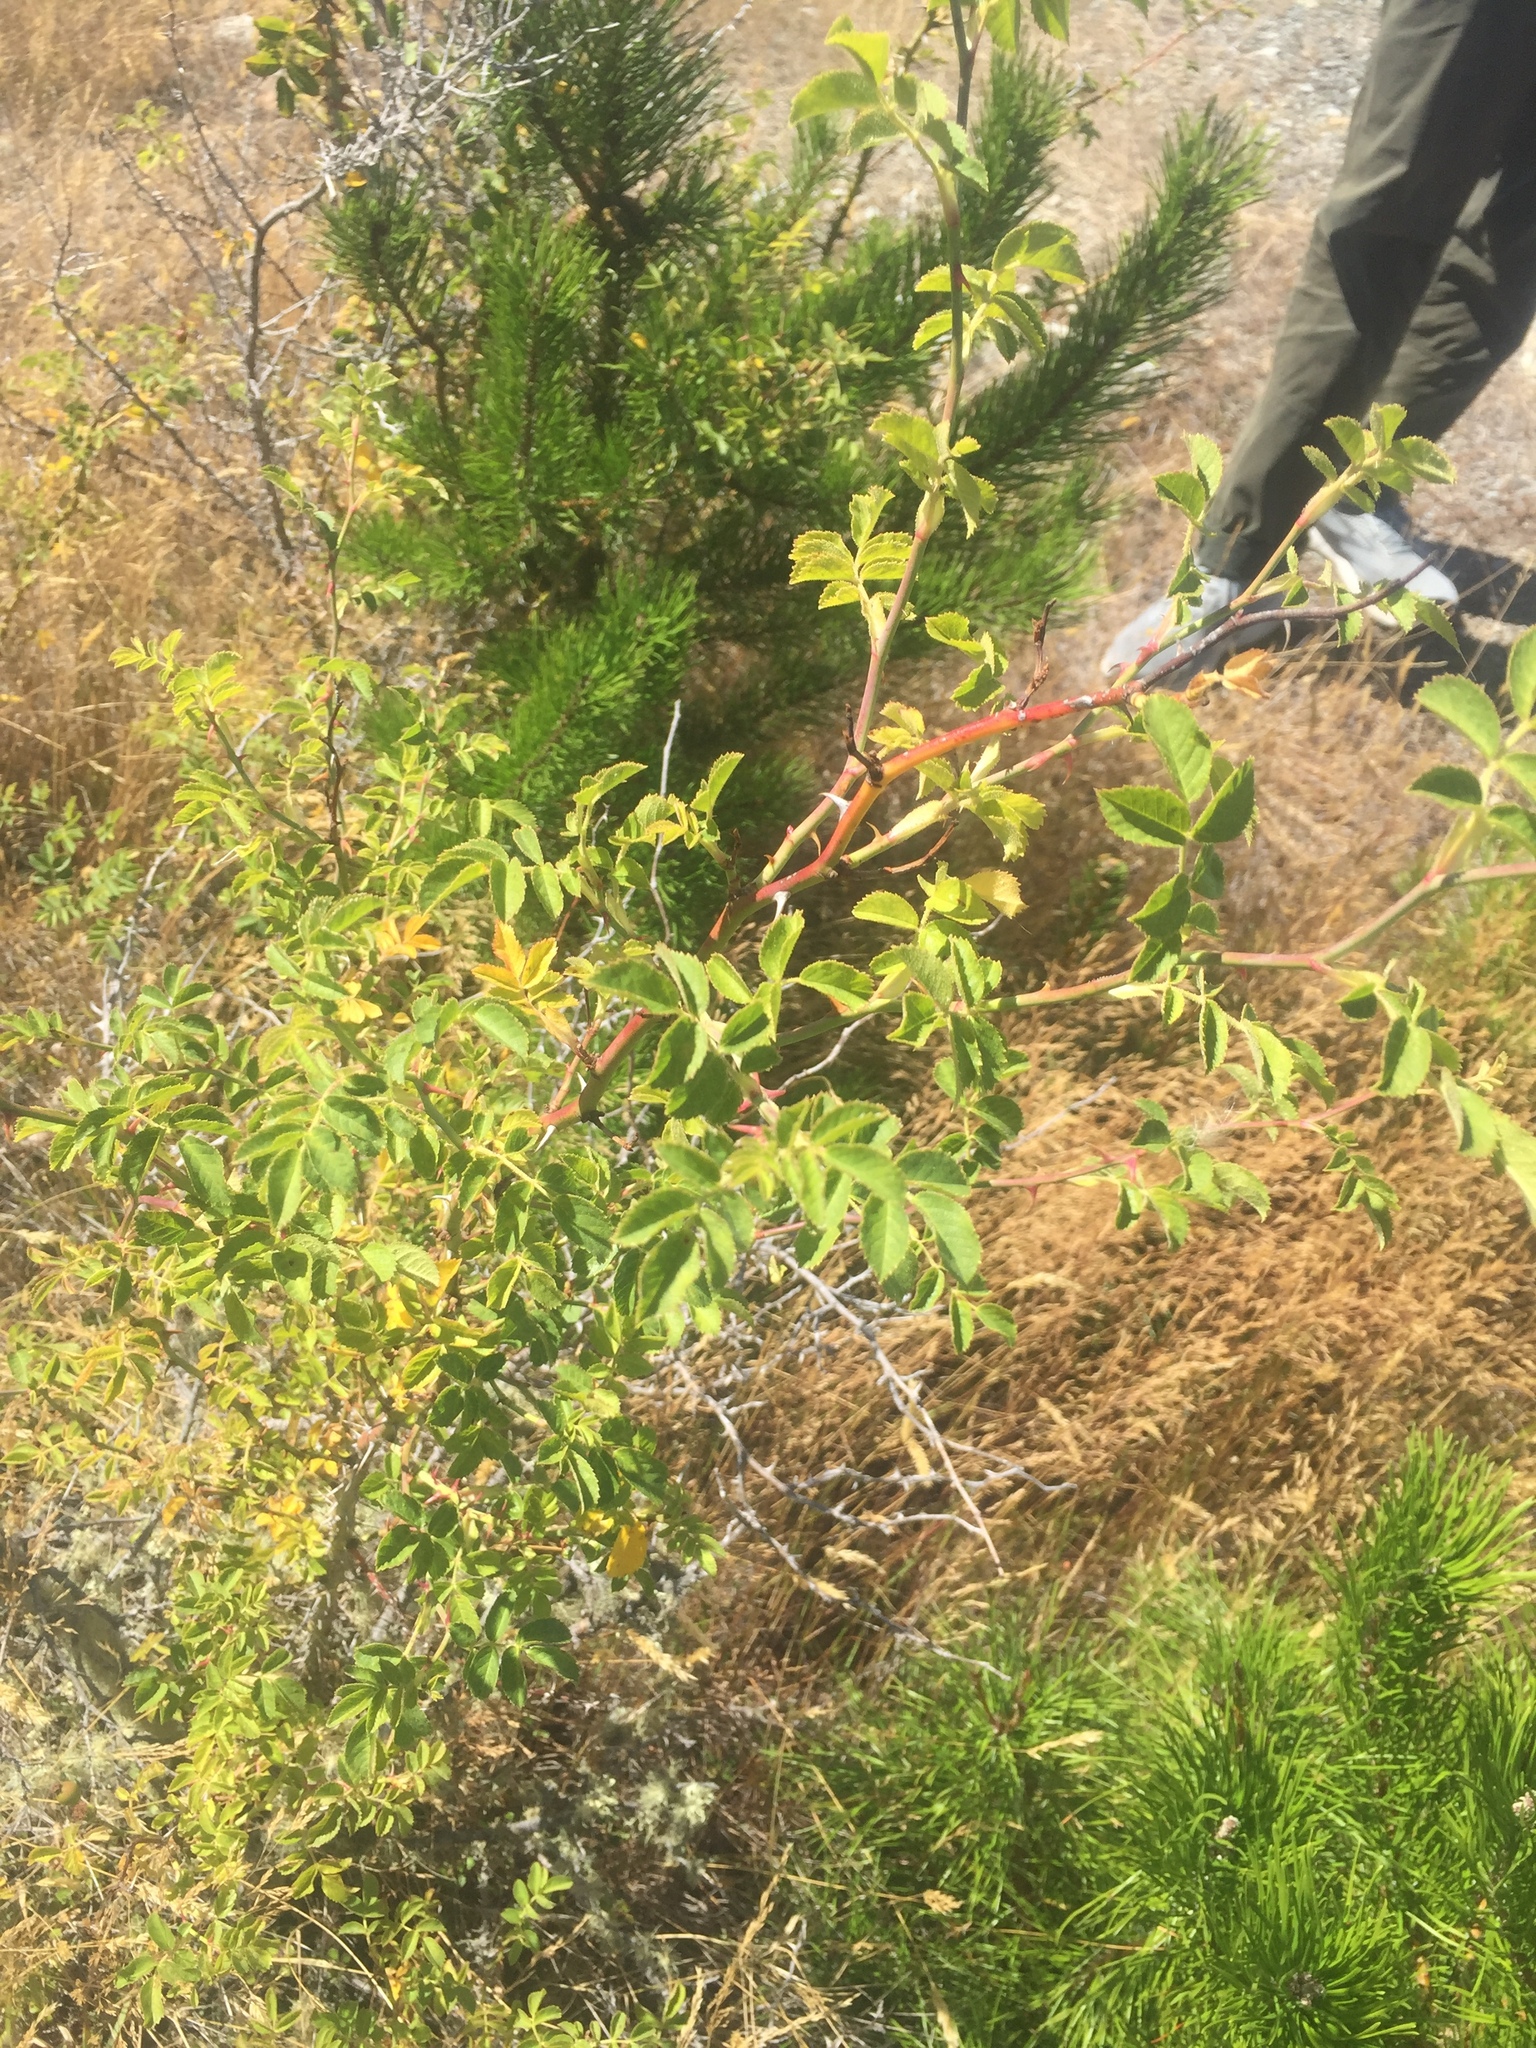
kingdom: Plantae
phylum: Tracheophyta
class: Magnoliopsida
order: Rosales
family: Rosaceae
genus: Rosa
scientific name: Rosa rubiginosa
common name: Sweet-briar
